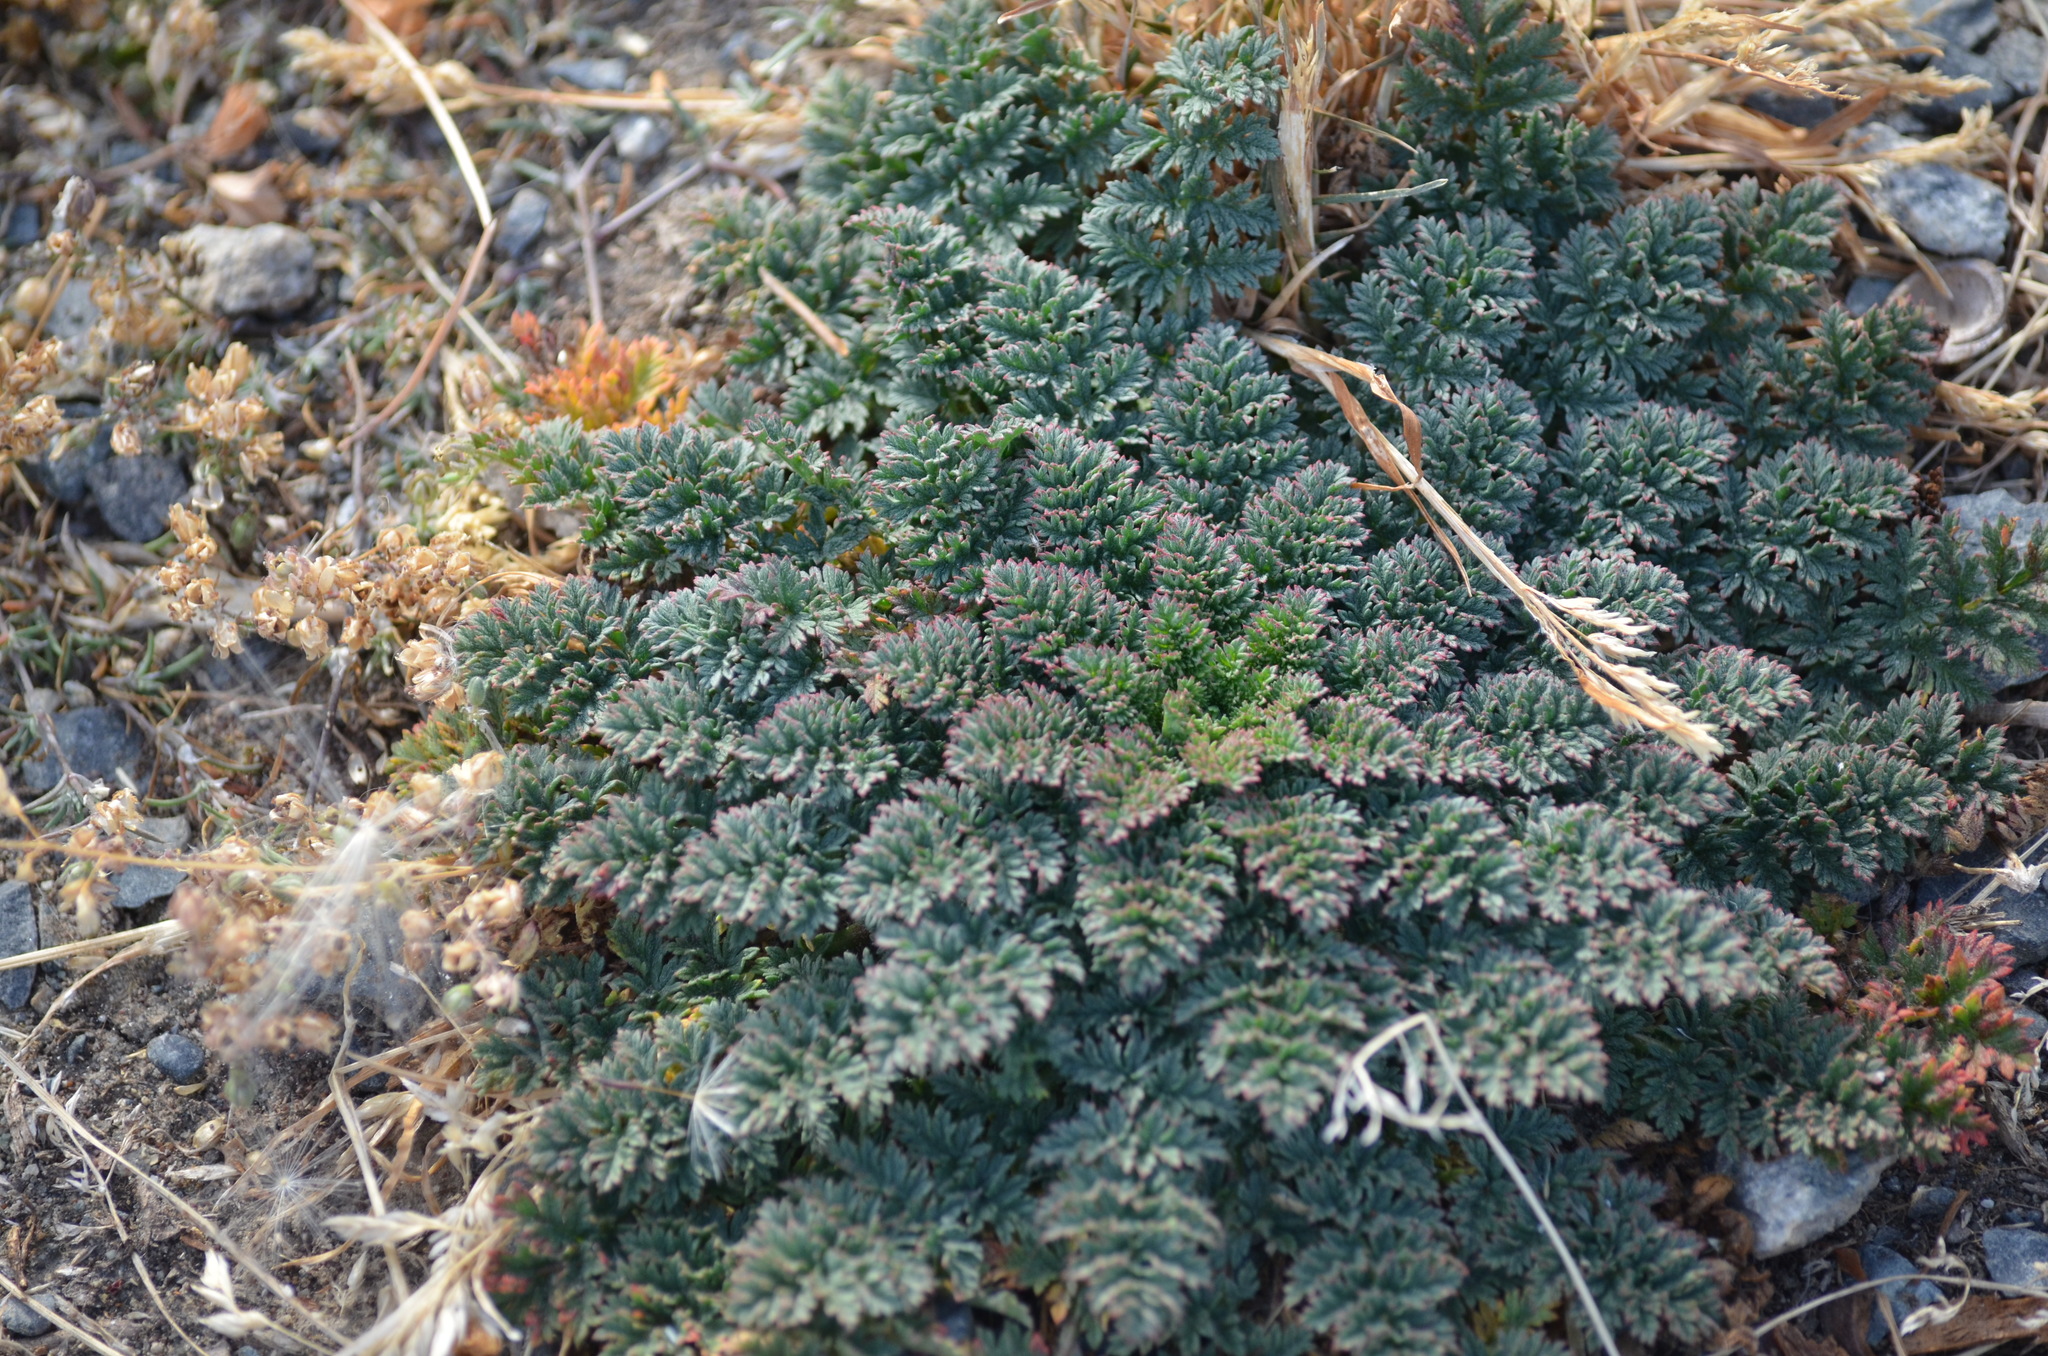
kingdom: Plantae
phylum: Tracheophyta
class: Magnoliopsida
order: Geraniales
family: Geraniaceae
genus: Erodium
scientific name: Erodium cicutarium
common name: Common stork's-bill
